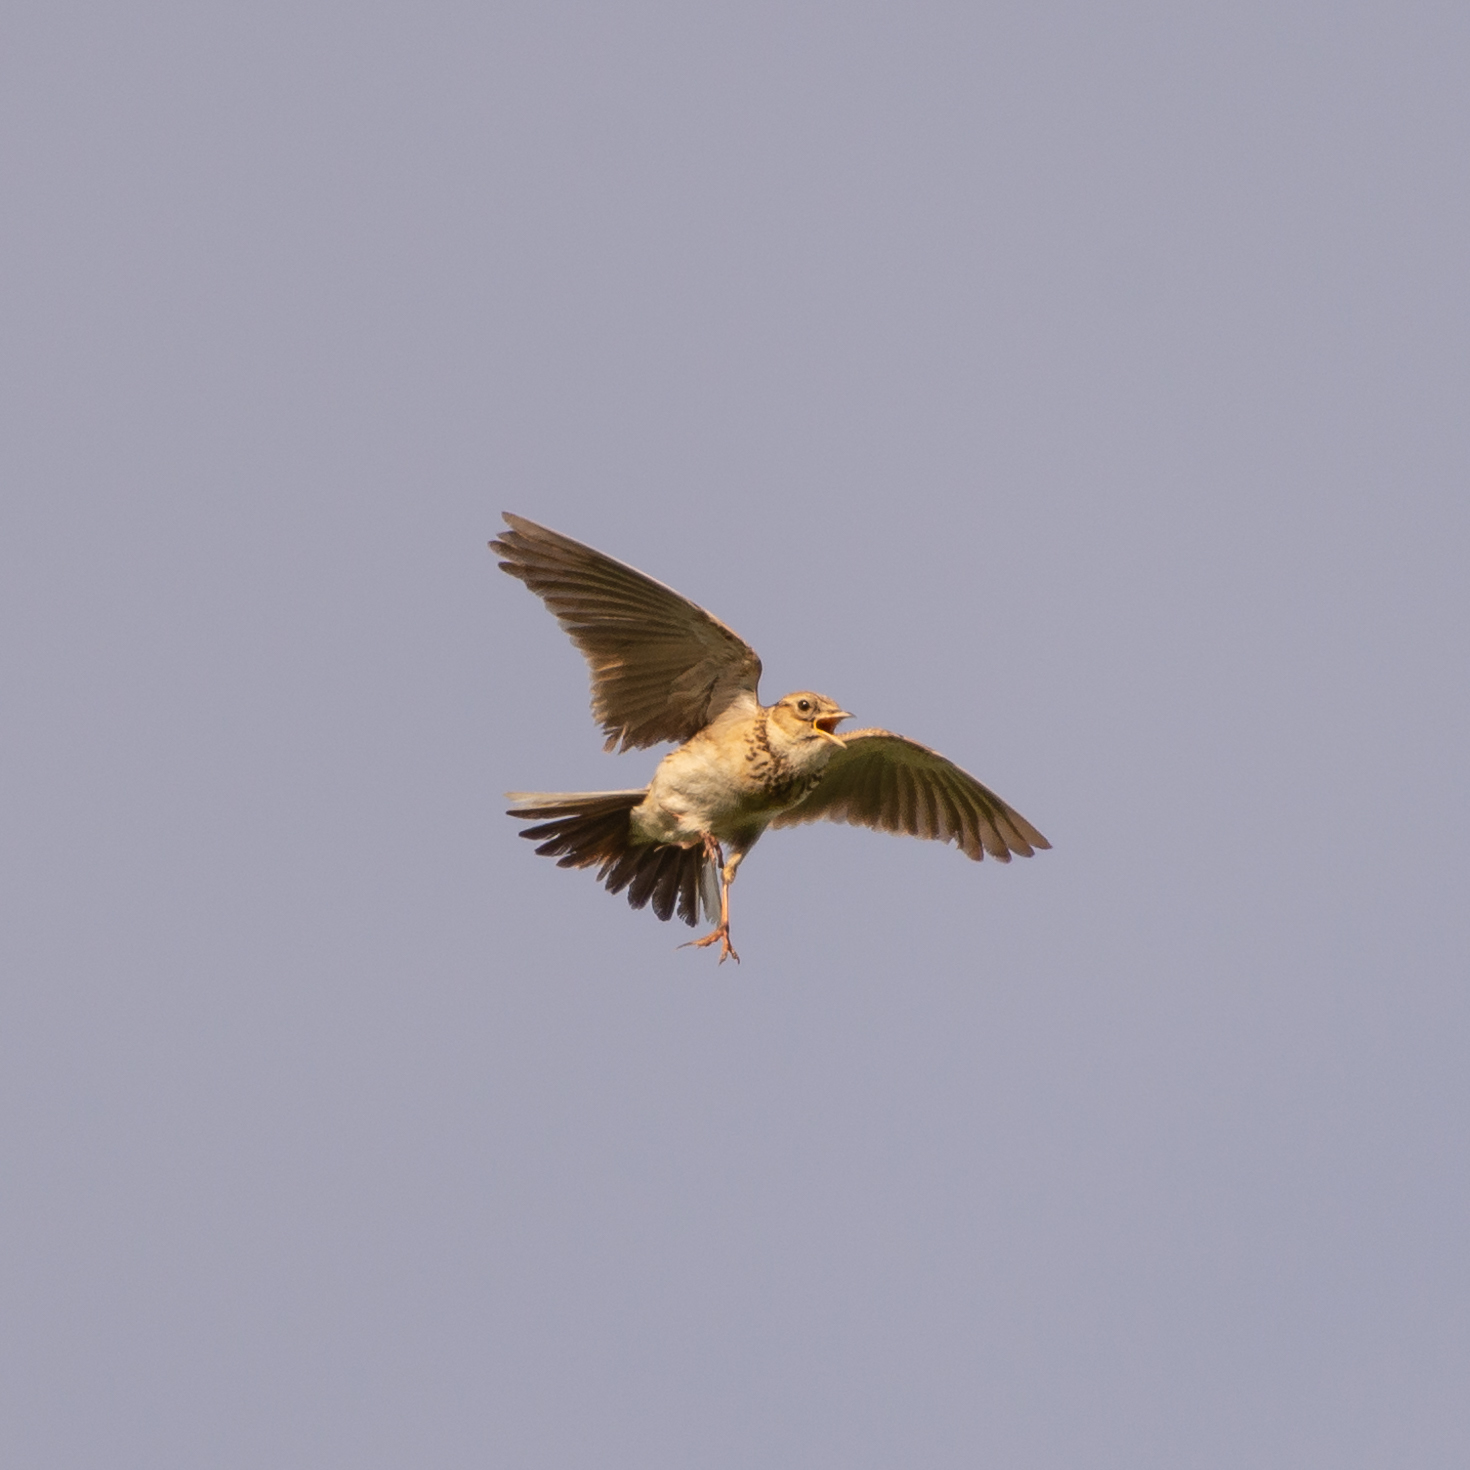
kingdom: Animalia
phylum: Chordata
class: Aves
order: Passeriformes
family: Alaudidae
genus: Alauda
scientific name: Alauda arvensis
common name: Eurasian skylark
